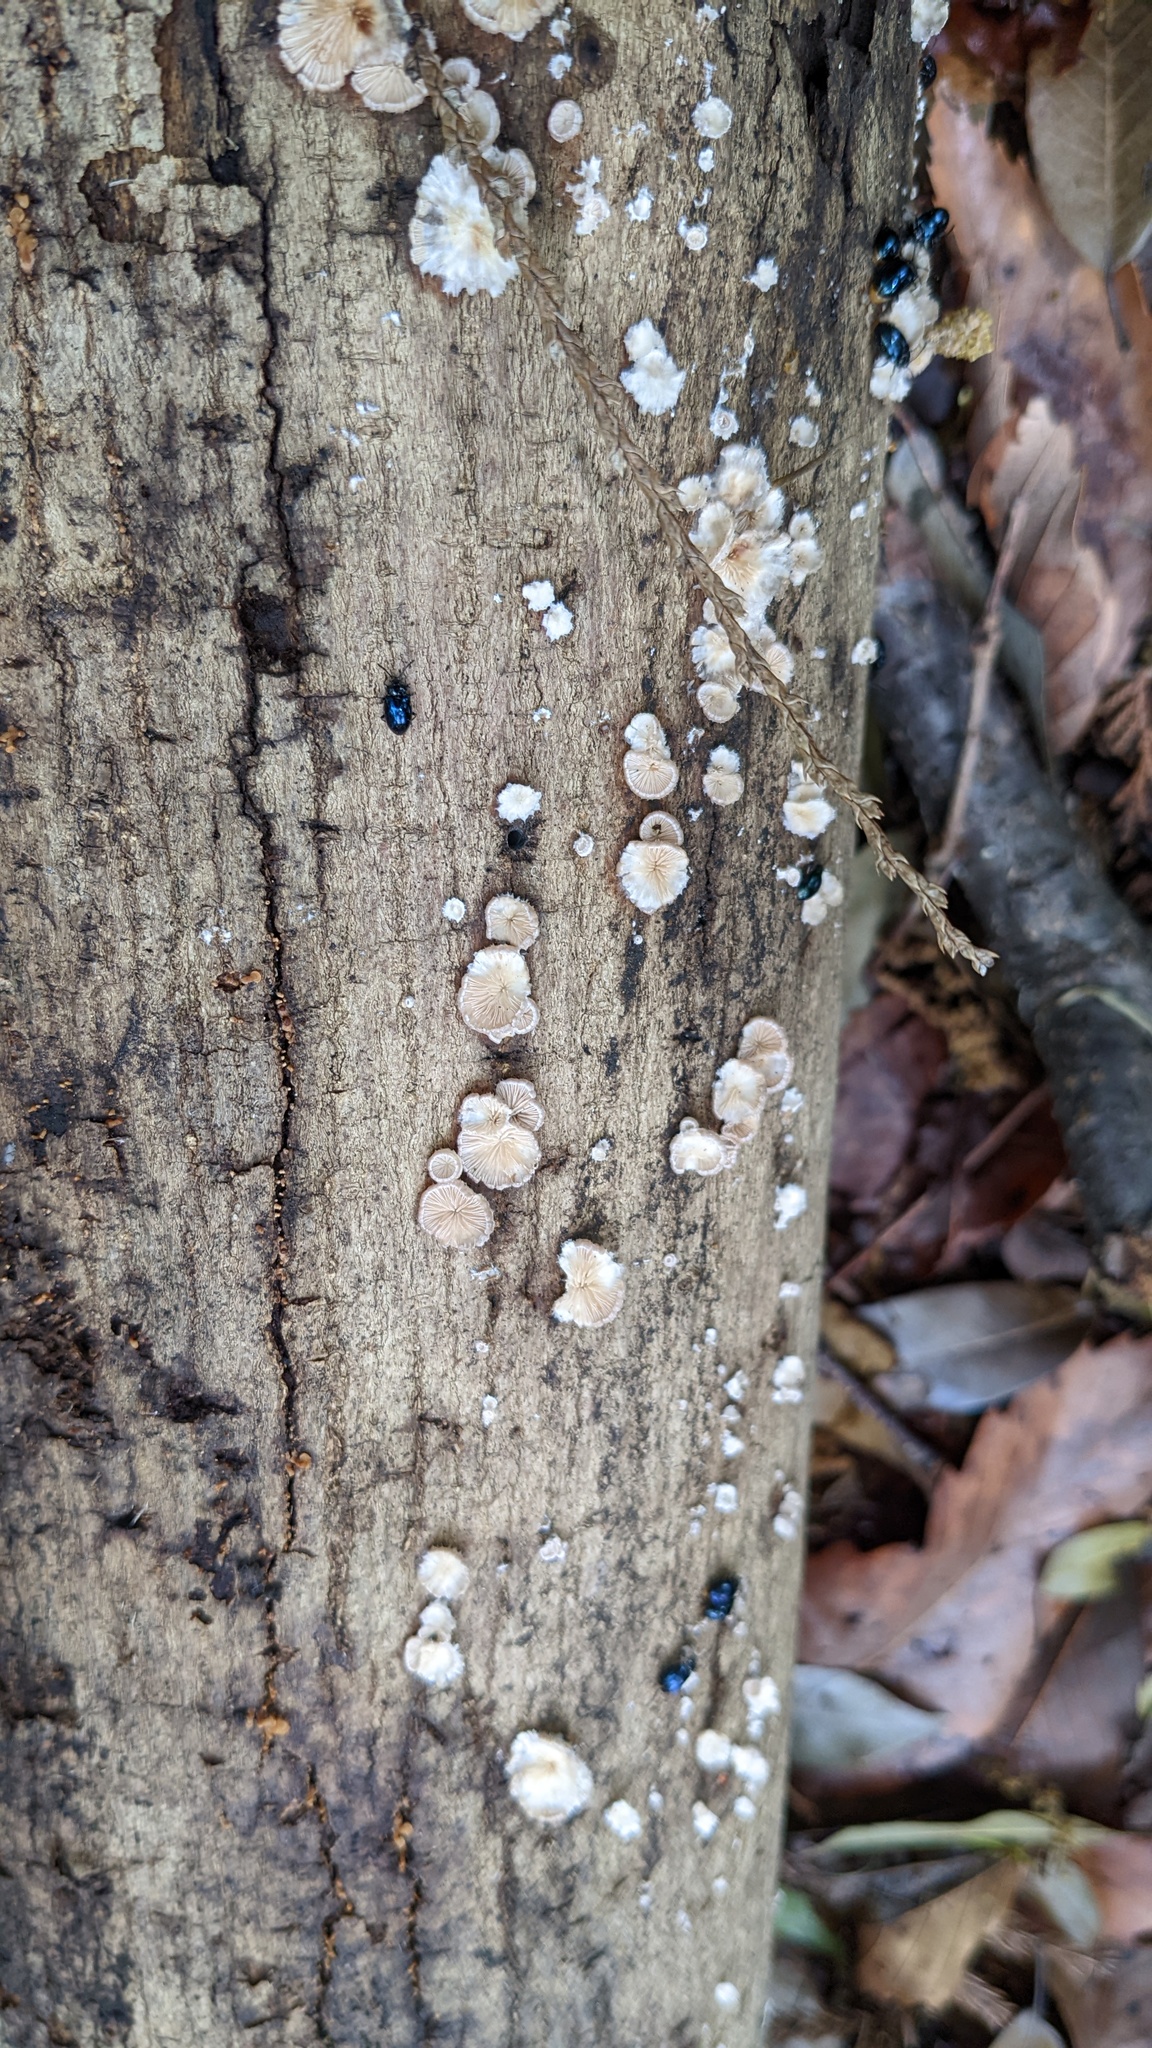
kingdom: Fungi
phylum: Basidiomycota
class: Agaricomycetes
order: Agaricales
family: Schizophyllaceae
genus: Schizophyllum
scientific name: Schizophyllum commune
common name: Common porecrust
